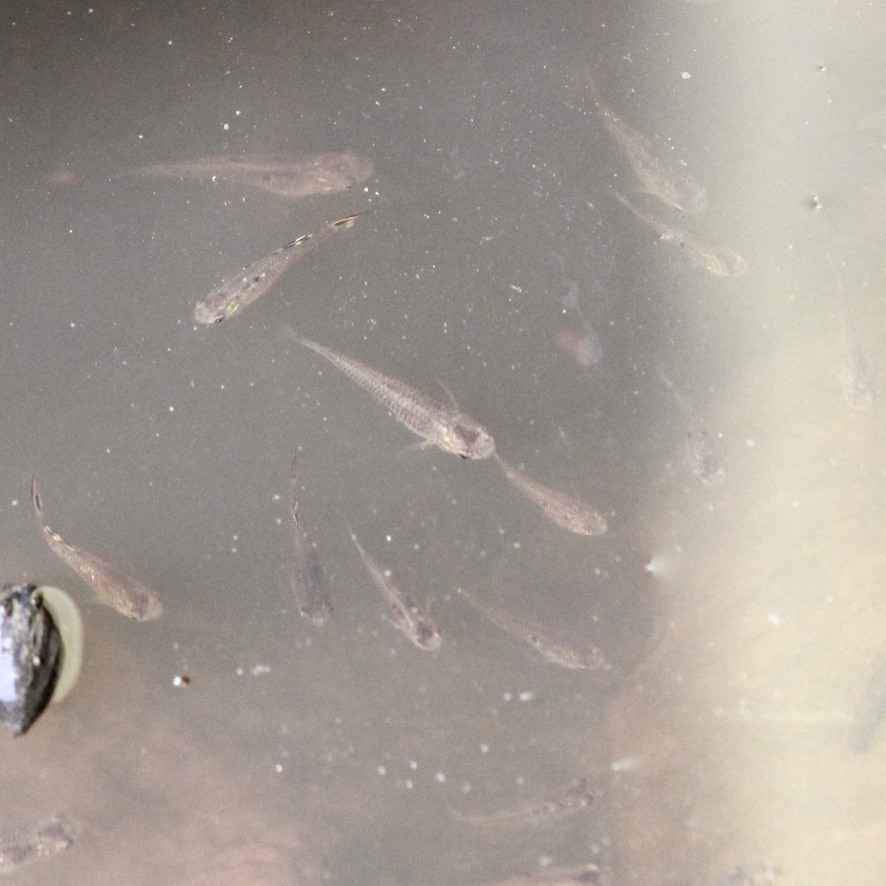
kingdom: Animalia
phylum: Chordata
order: Cyprinodontiformes
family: Poeciliidae
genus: Micropoecilia
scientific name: Micropoecilia picta
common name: Millions
